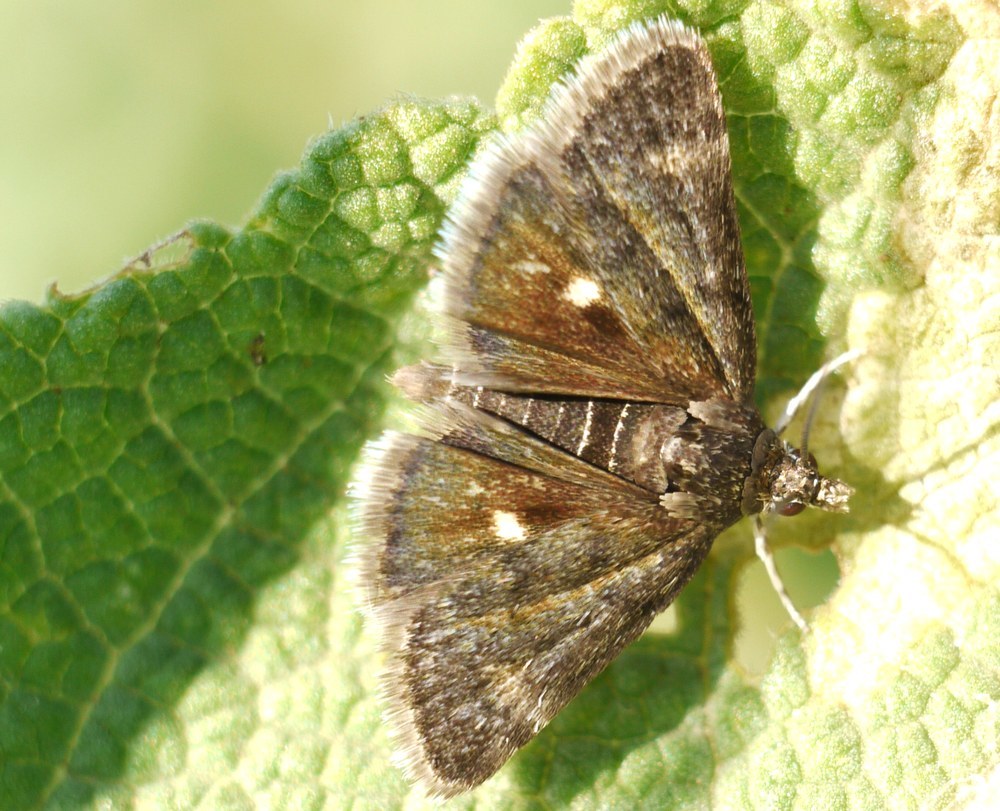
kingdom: Animalia
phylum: Arthropoda
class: Insecta
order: Lepidoptera
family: Crambidae
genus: Heliothela
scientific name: Heliothela wulfeniana
